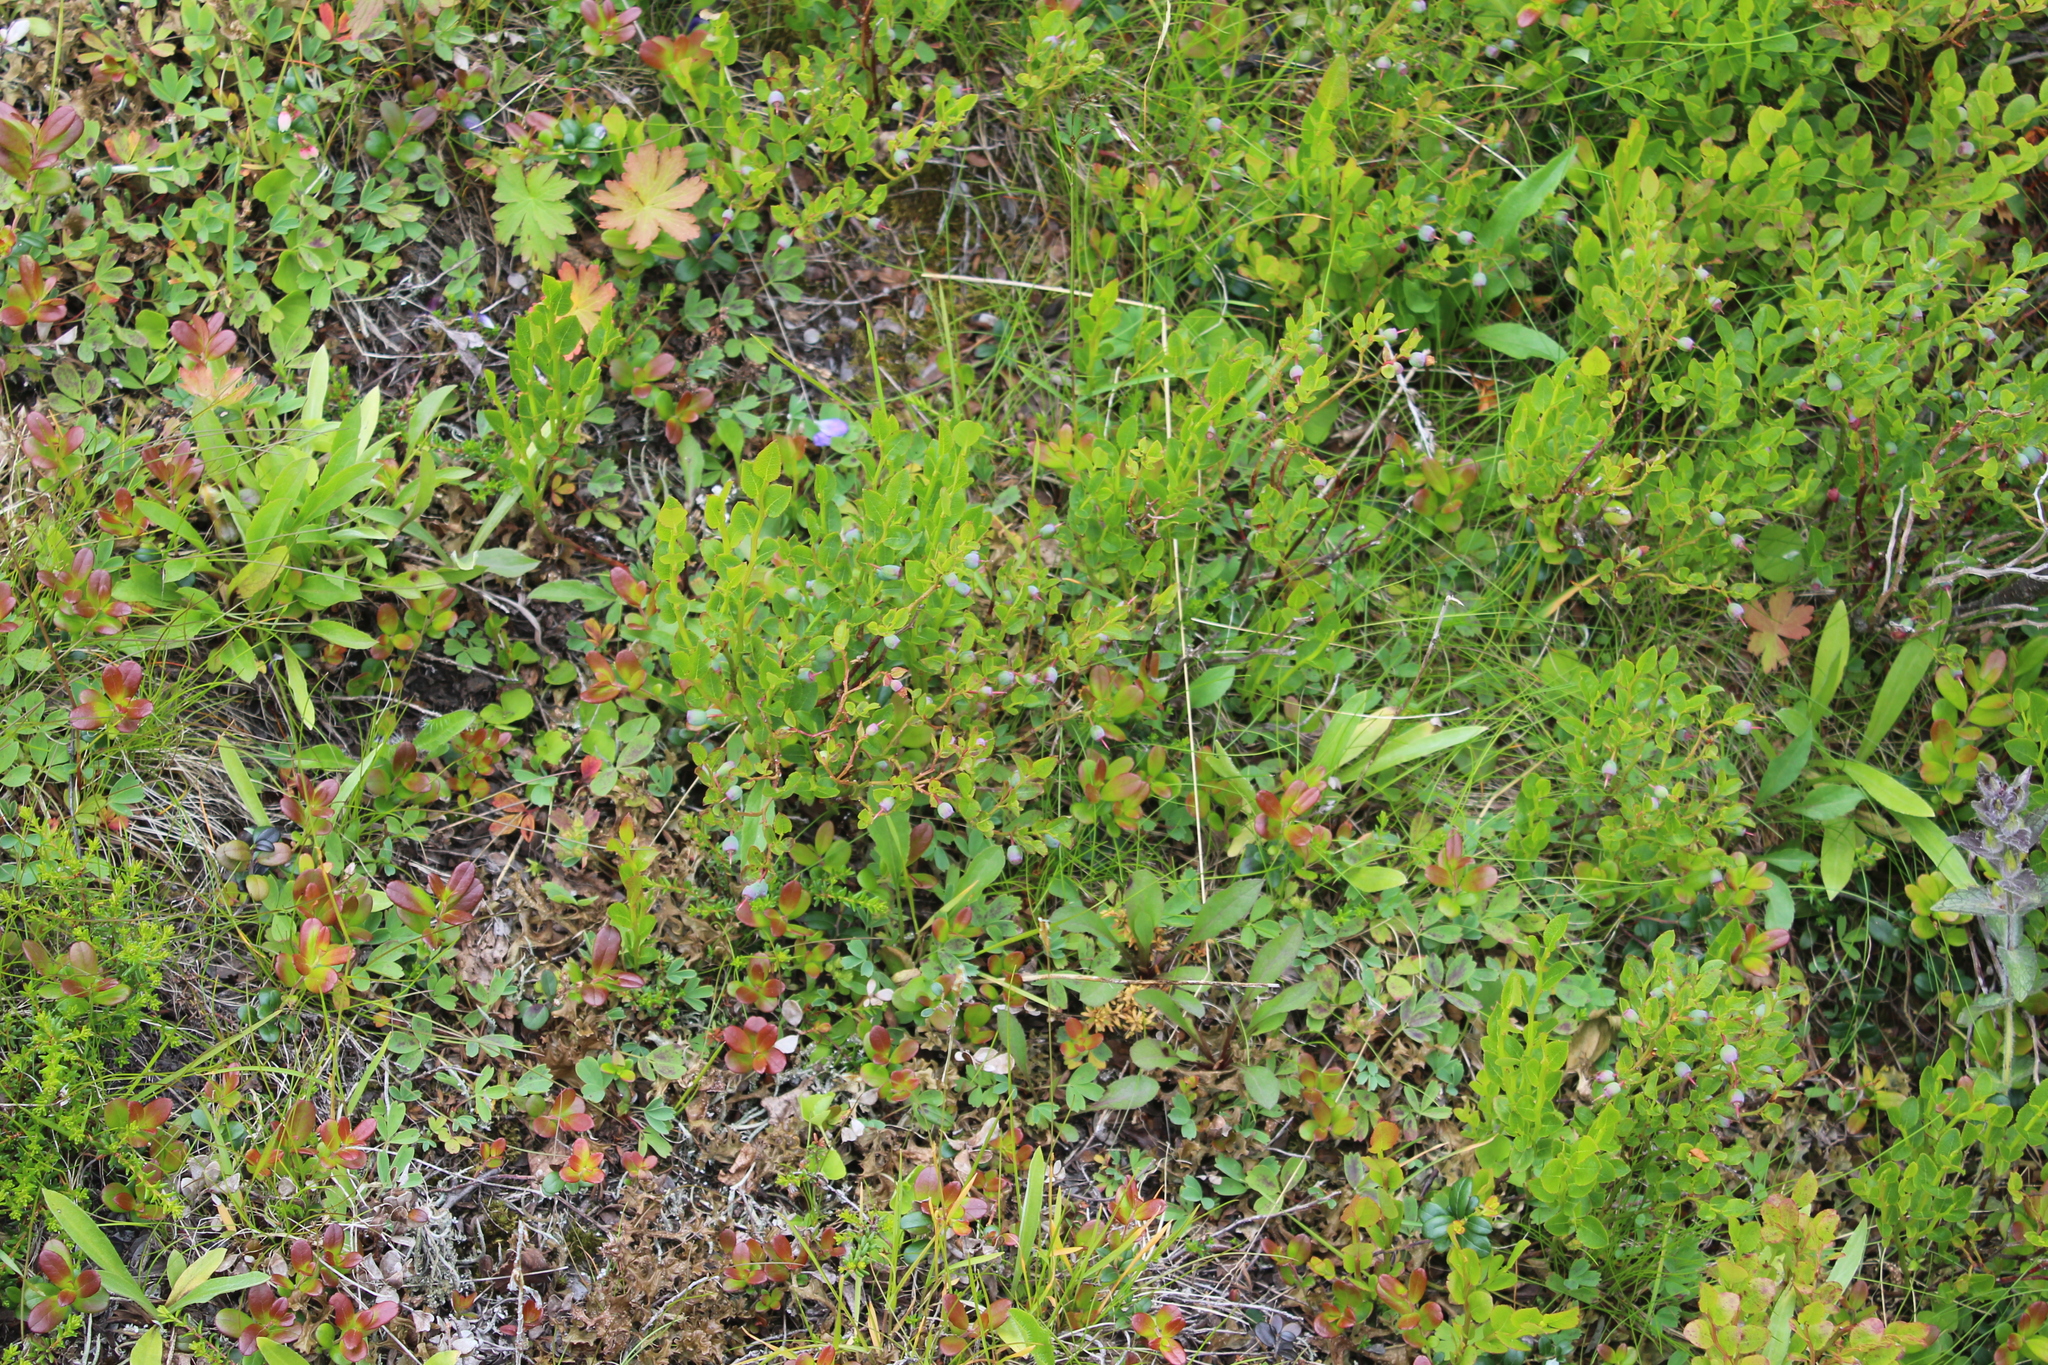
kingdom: Plantae
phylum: Tracheophyta
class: Magnoliopsida
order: Ericales
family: Ericaceae
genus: Vaccinium
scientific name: Vaccinium myrtillus
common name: Bilberry
